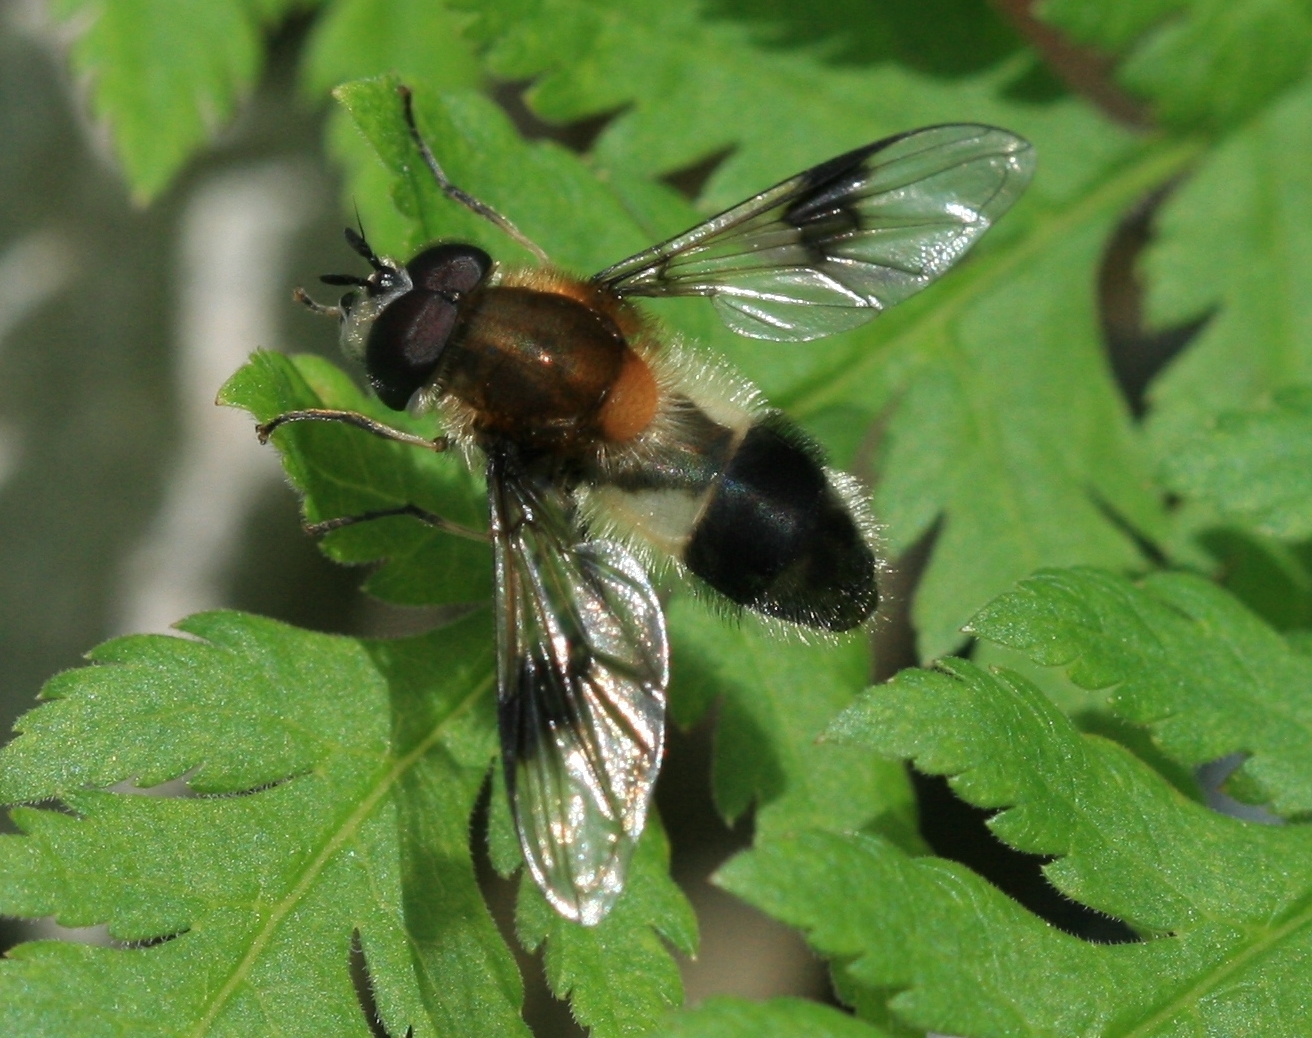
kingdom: Animalia
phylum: Arthropoda
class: Insecta
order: Diptera
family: Syrphidae
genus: Leucozona
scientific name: Leucozona lucorum
